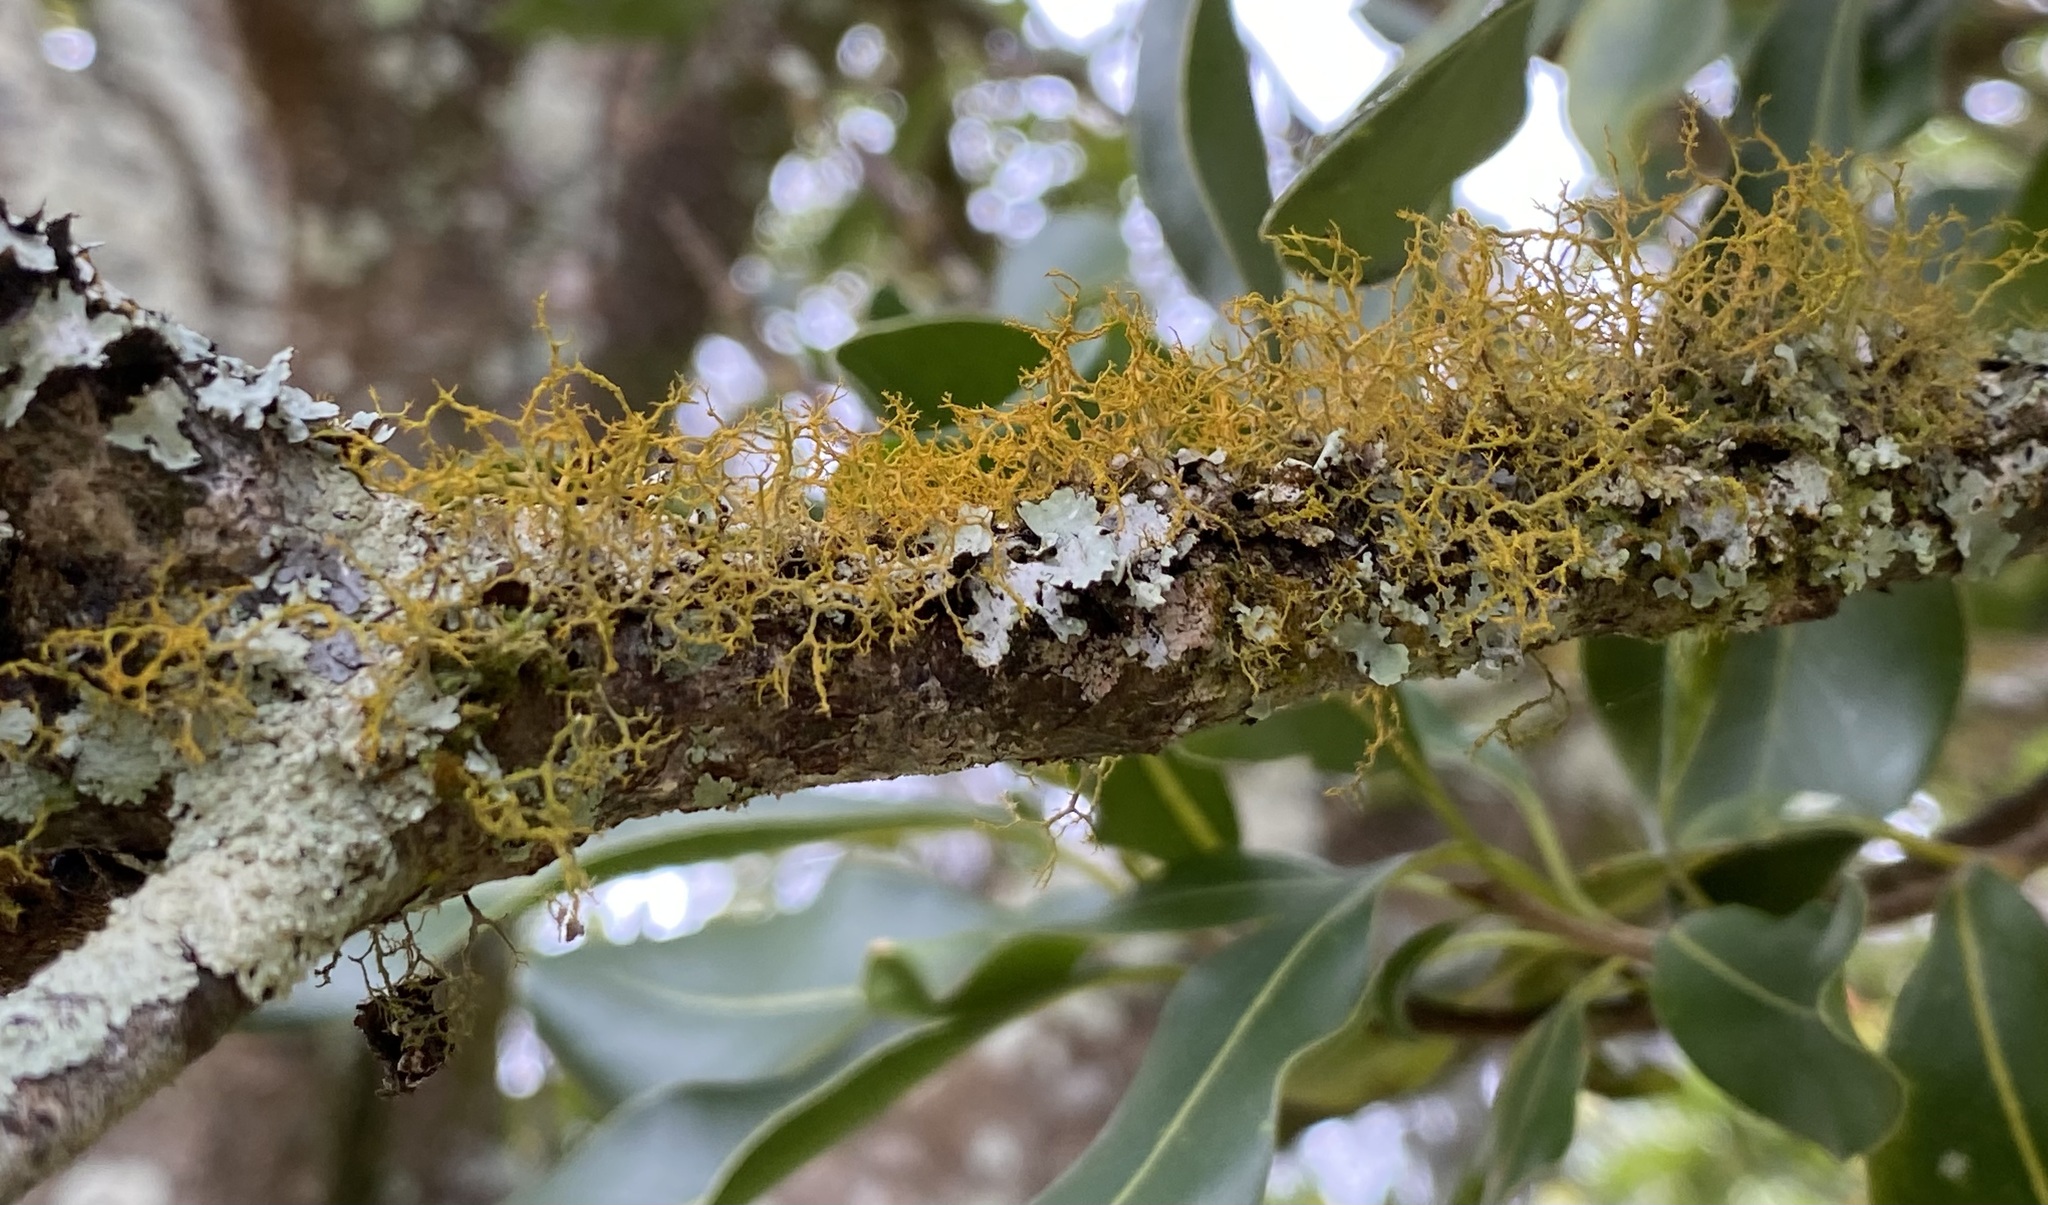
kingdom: Fungi
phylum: Ascomycota
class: Lecanoromycetes
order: Teloschistales
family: Teloschistaceae
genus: Teloschistes
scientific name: Teloschistes flavicans
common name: Golden hair-lichen
